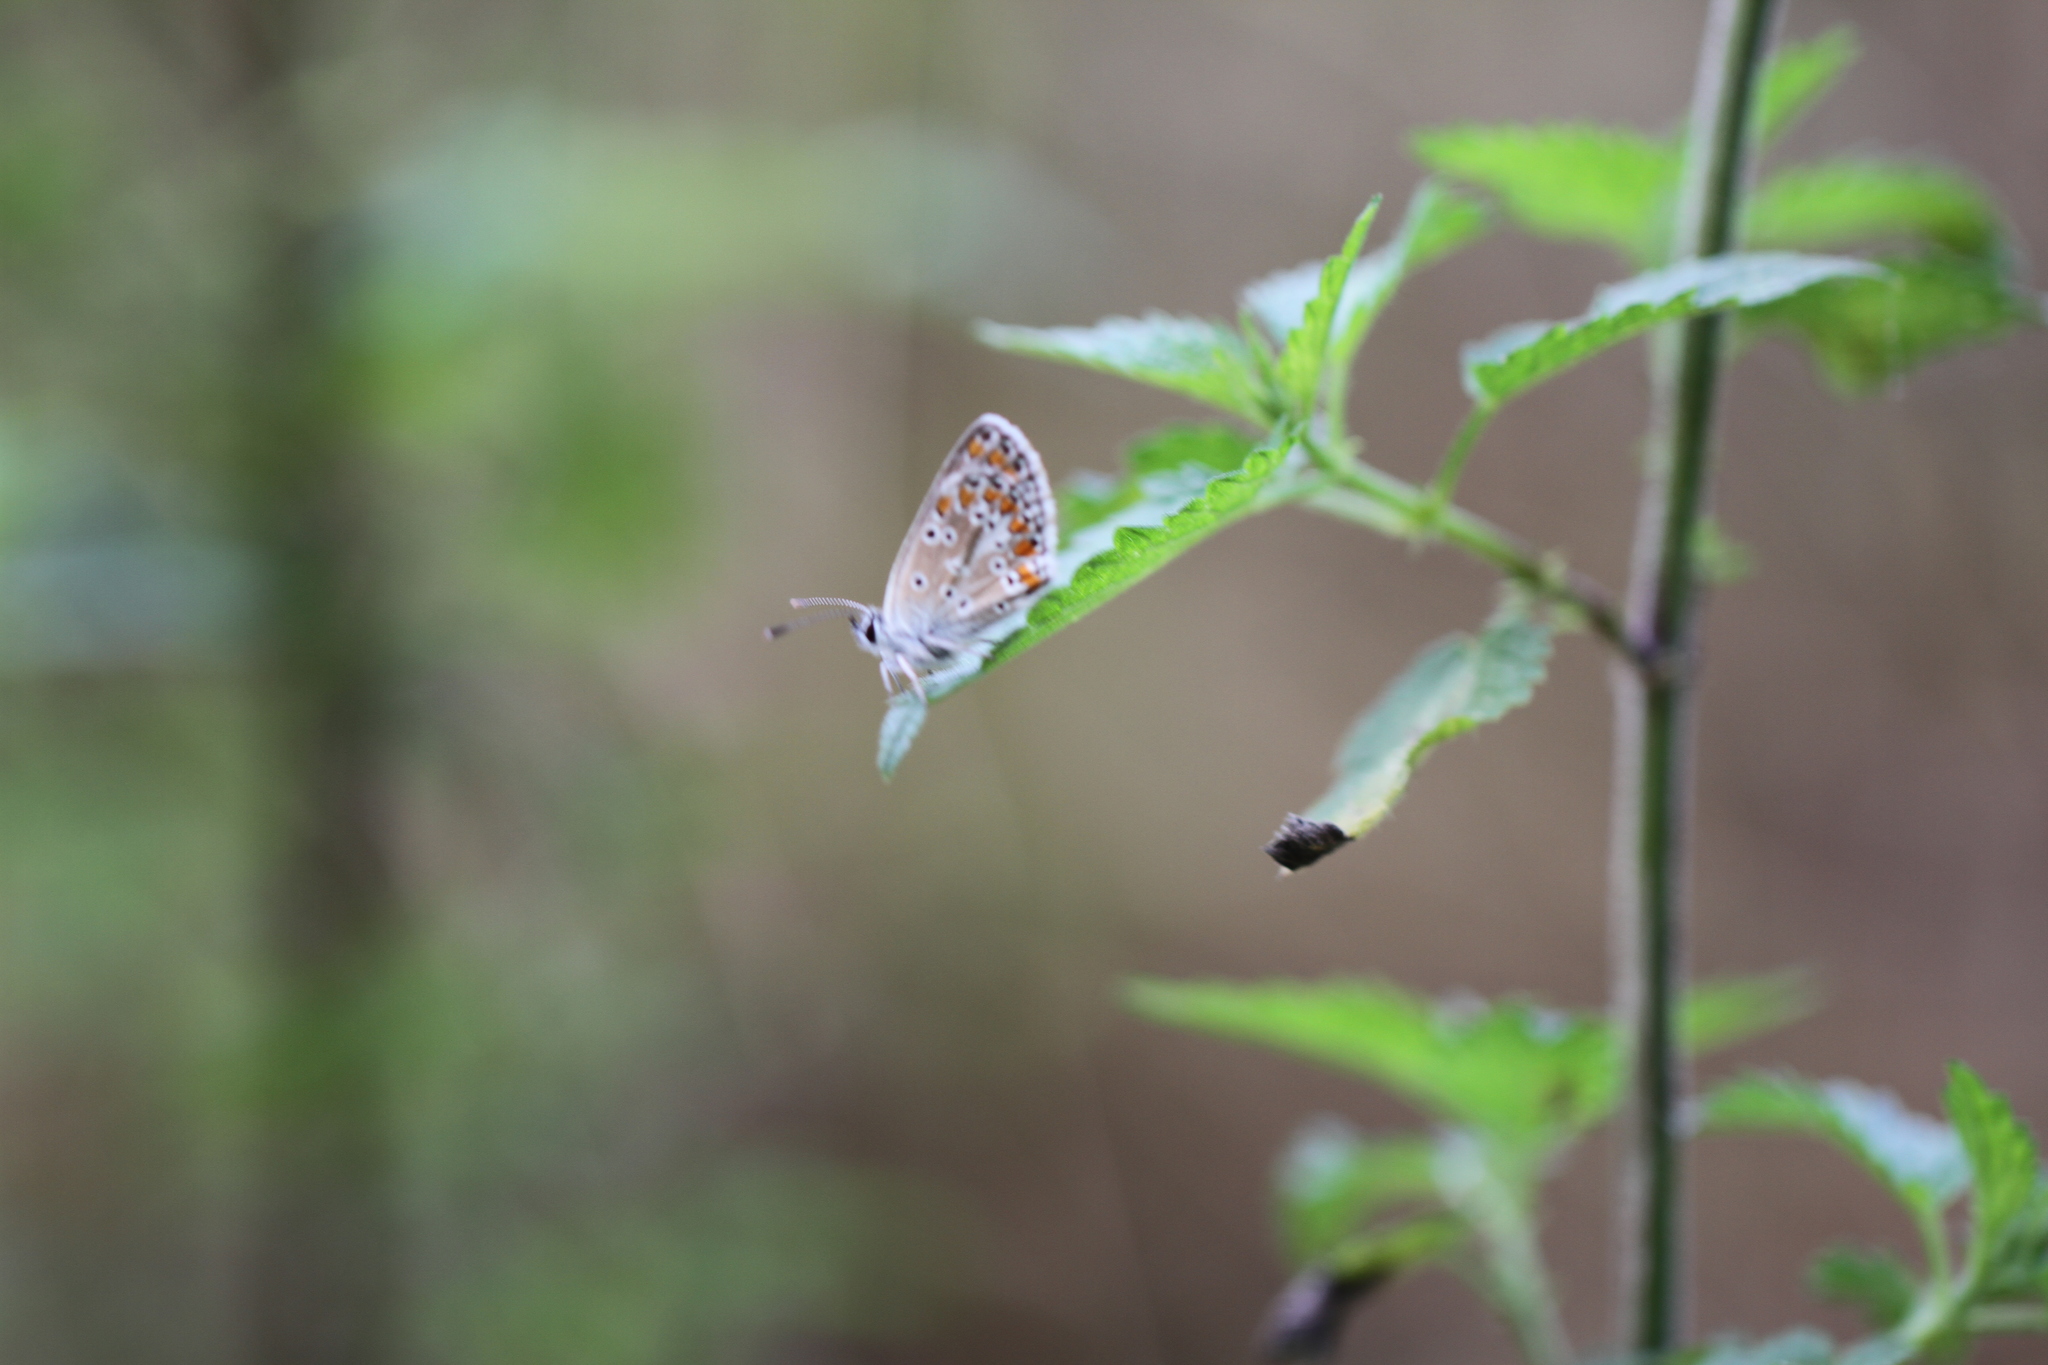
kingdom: Animalia
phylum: Arthropoda
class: Insecta
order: Lepidoptera
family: Lycaenidae
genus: Aricia
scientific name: Aricia agestis
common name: Brown argus
